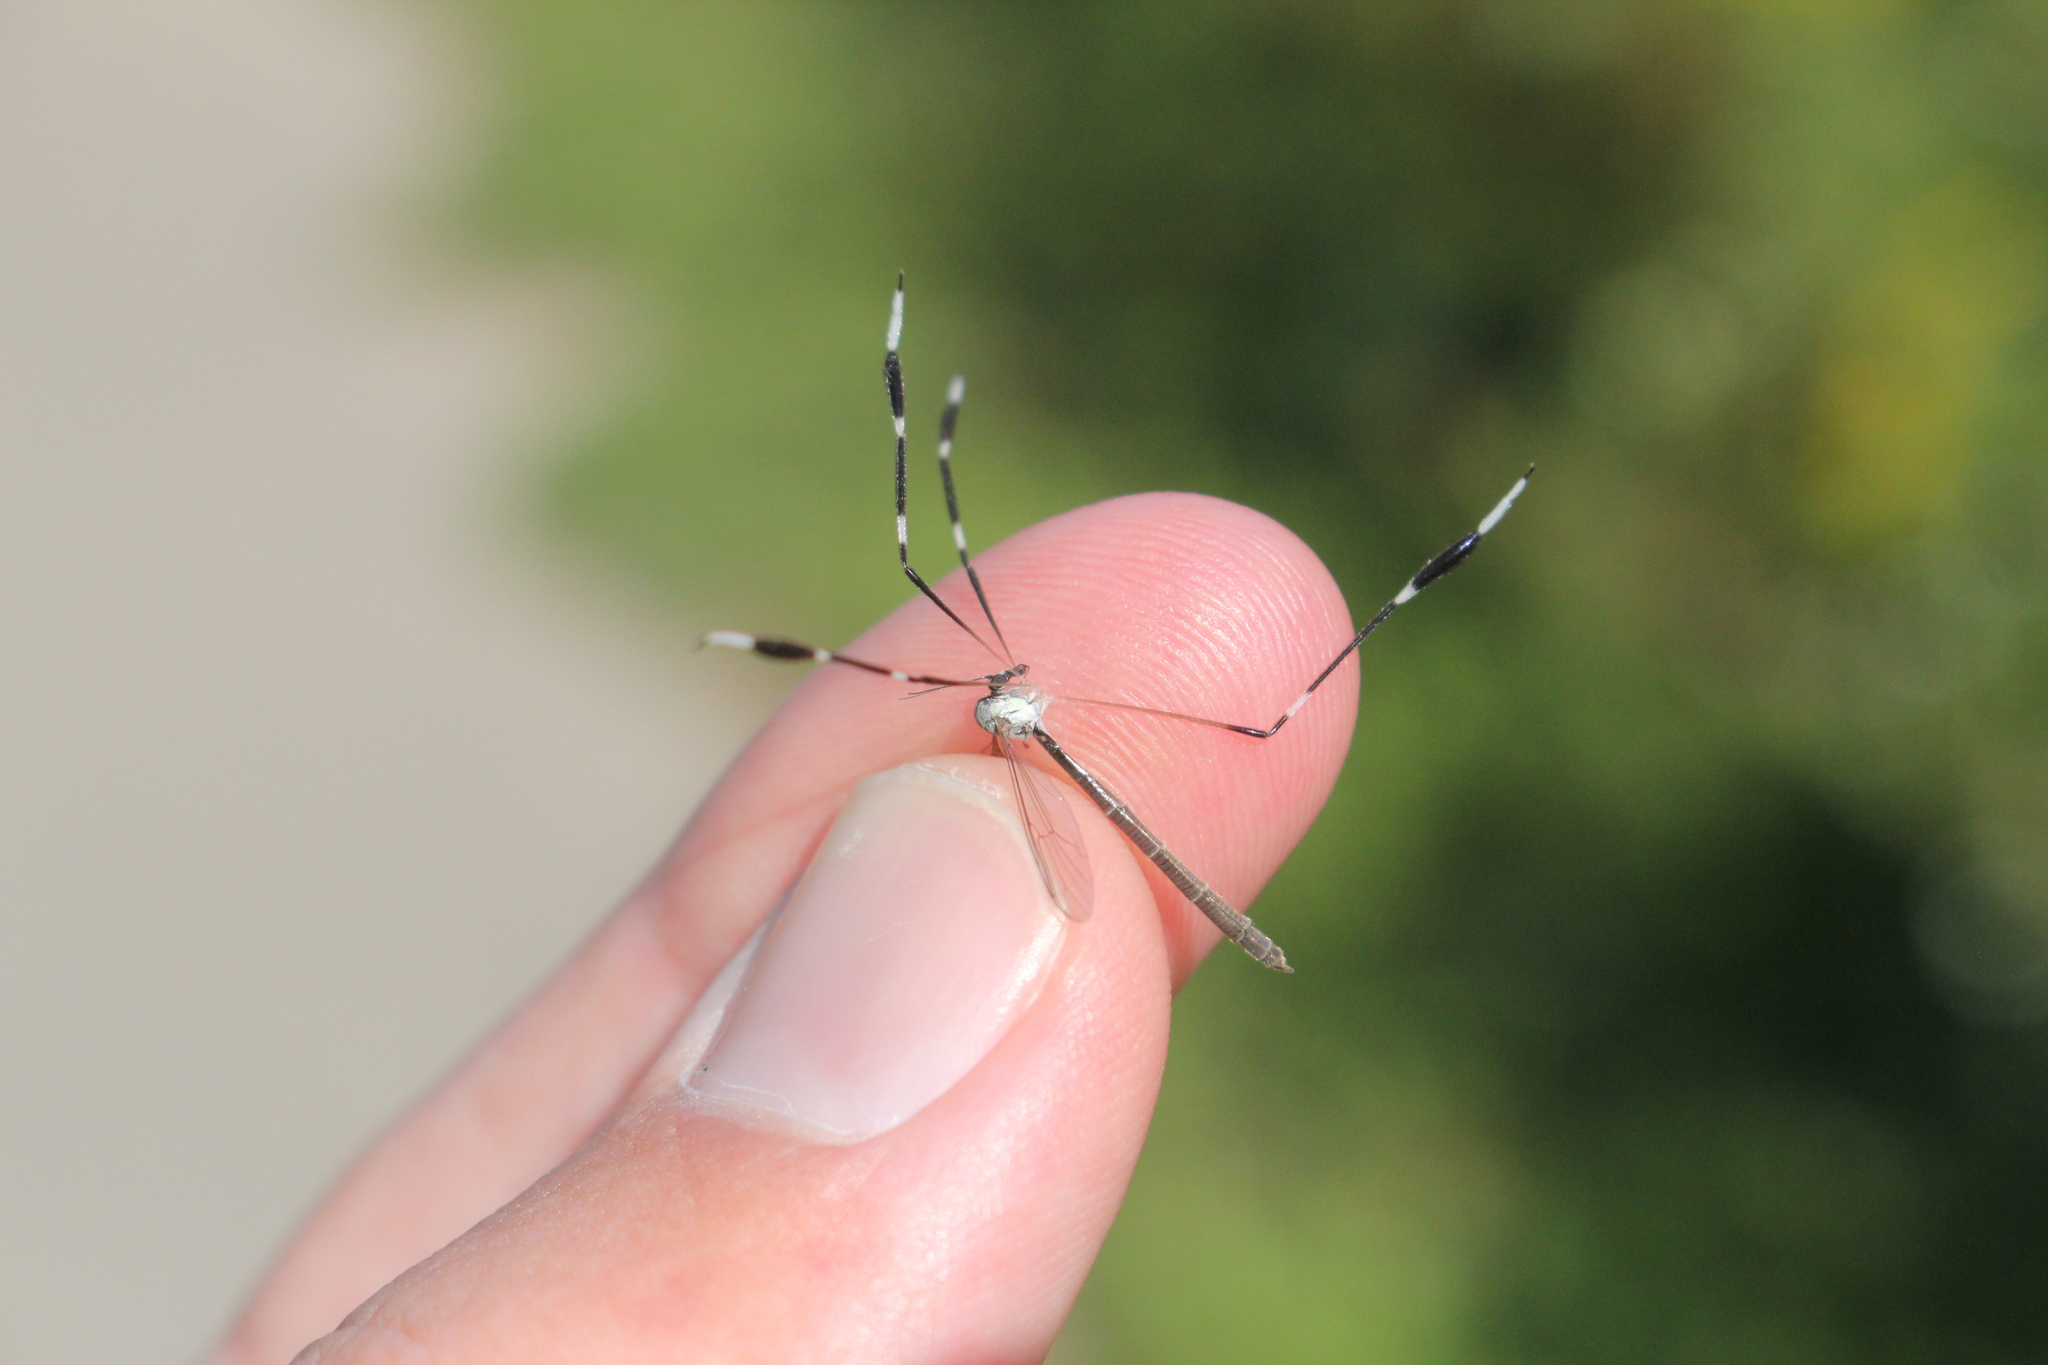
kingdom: Animalia
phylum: Arthropoda
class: Insecta
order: Diptera
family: Ptychopteridae
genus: Bittacomorpha
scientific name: Bittacomorpha clavipes
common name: Eastern phantom crane fly
